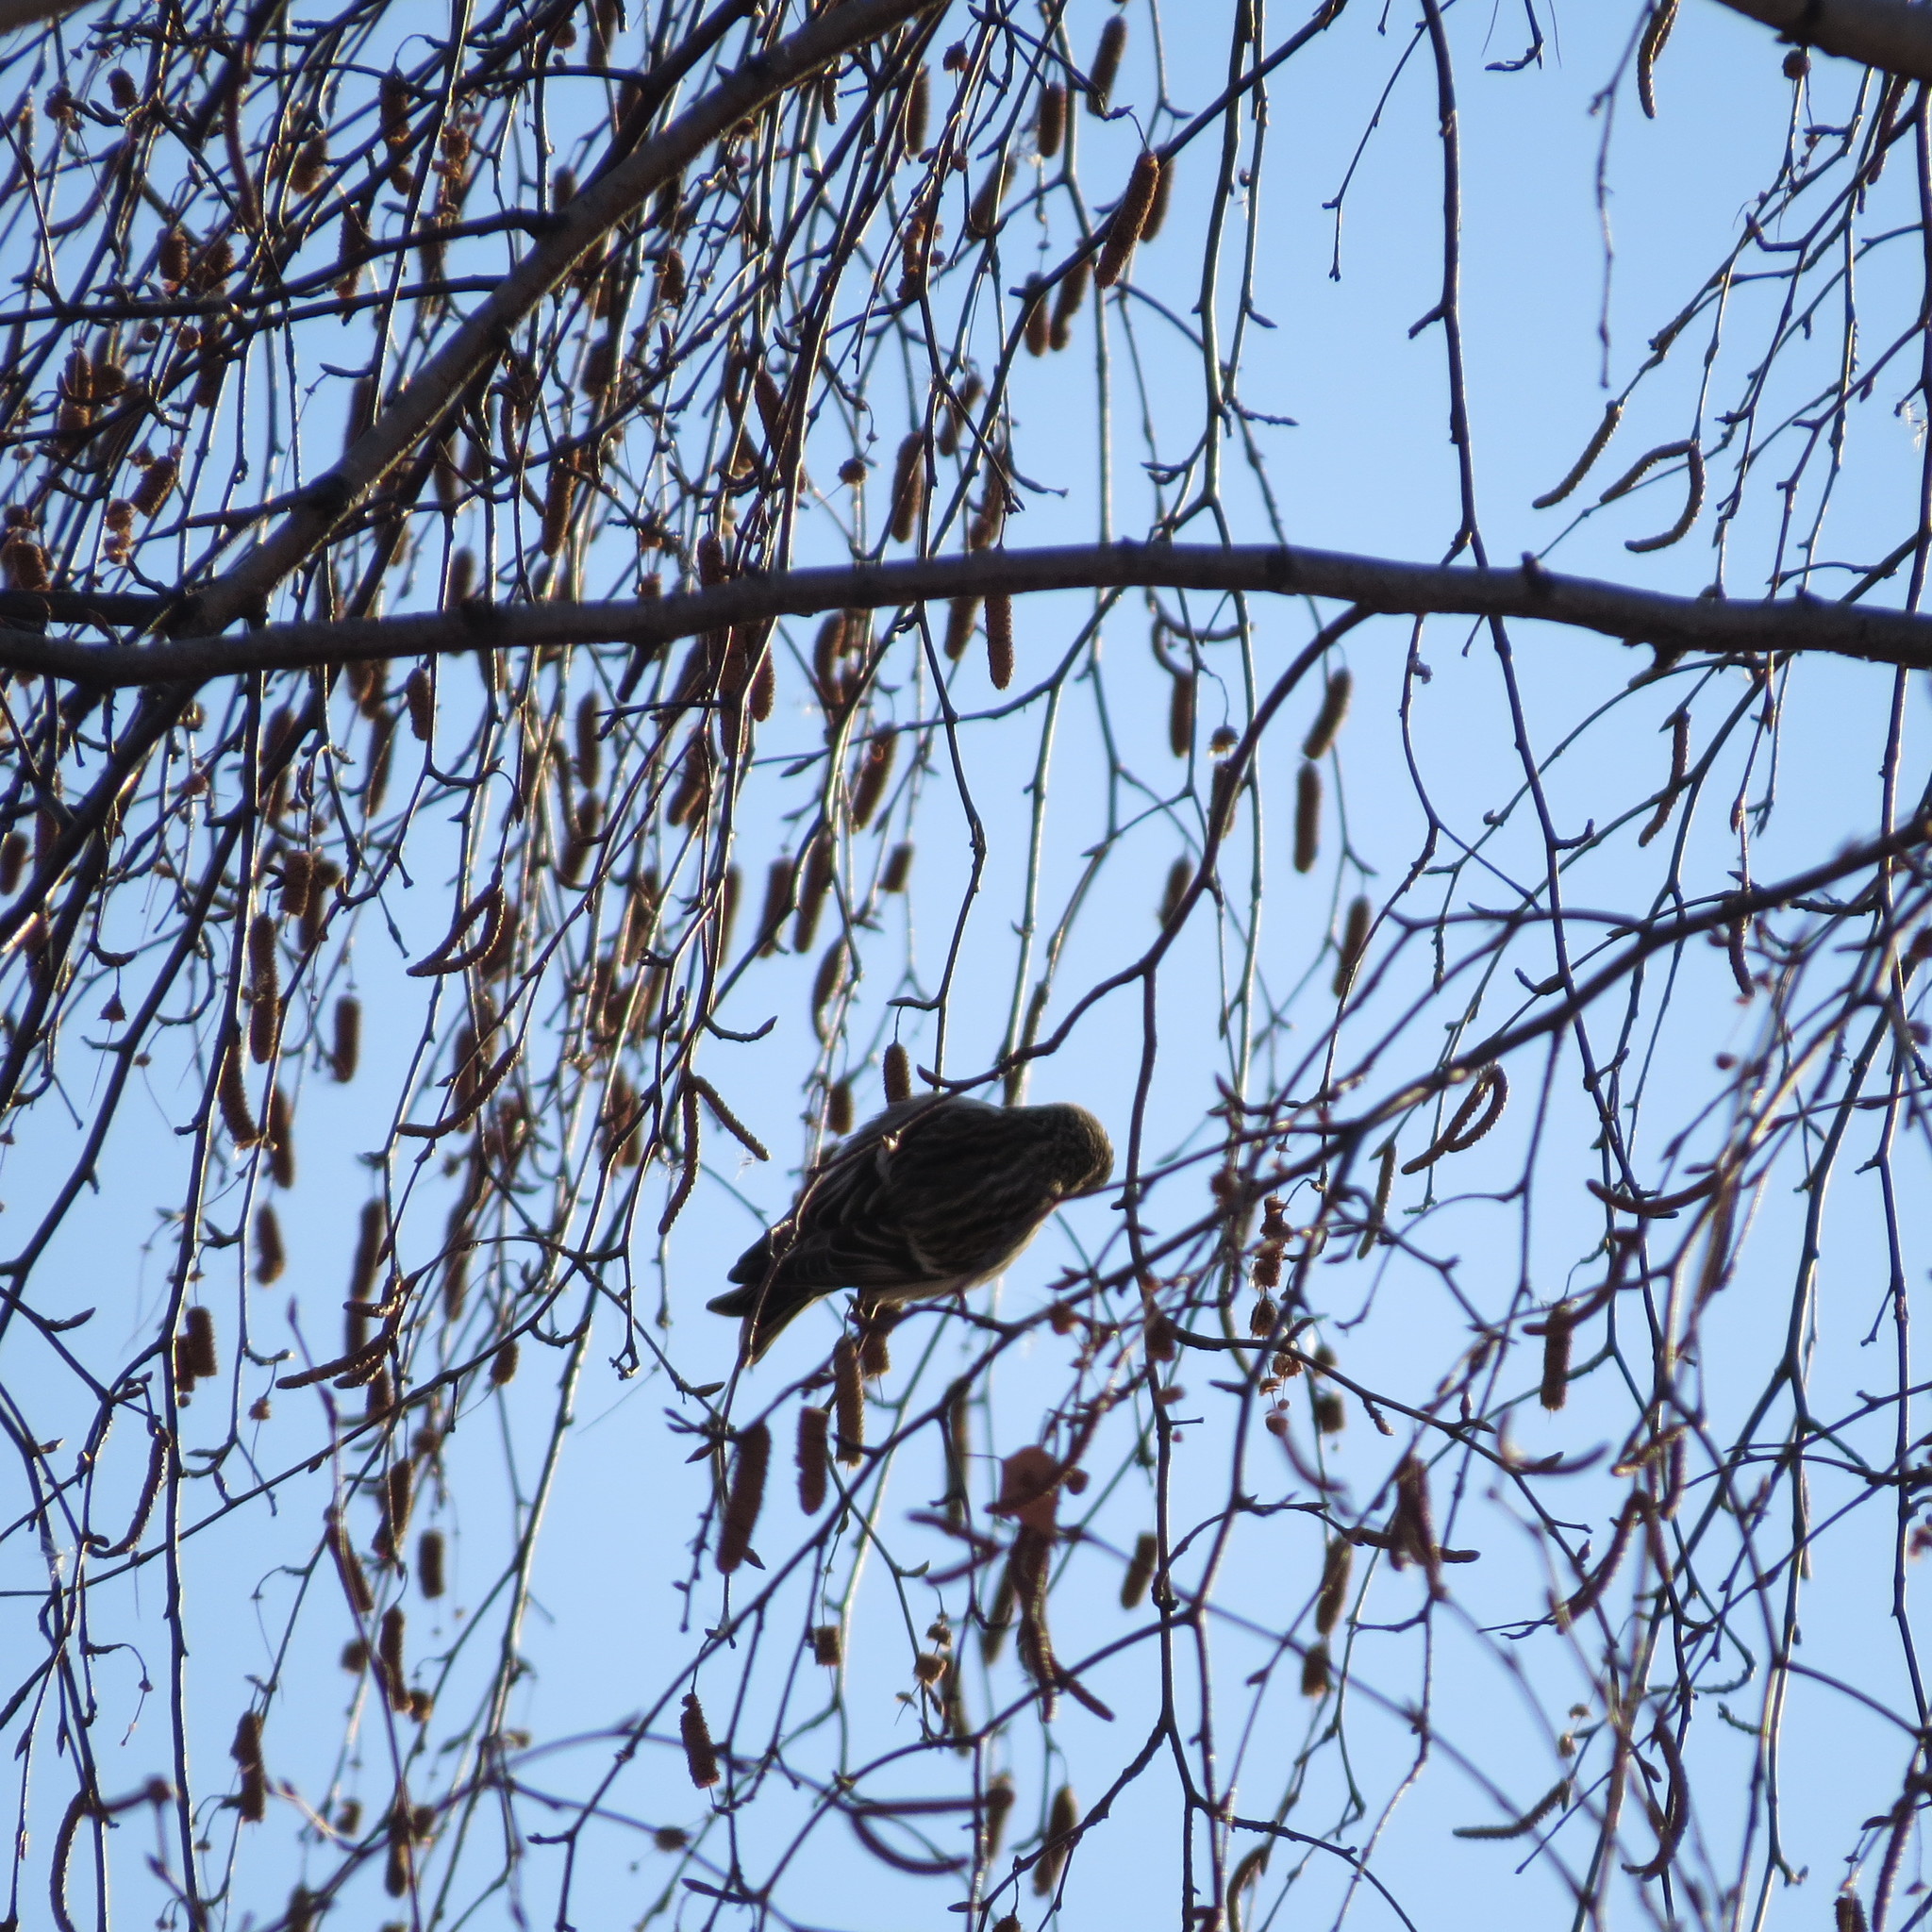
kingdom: Animalia
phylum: Chordata
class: Aves
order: Passeriformes
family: Fringillidae
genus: Acanthis
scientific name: Acanthis flammea
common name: Common redpoll
